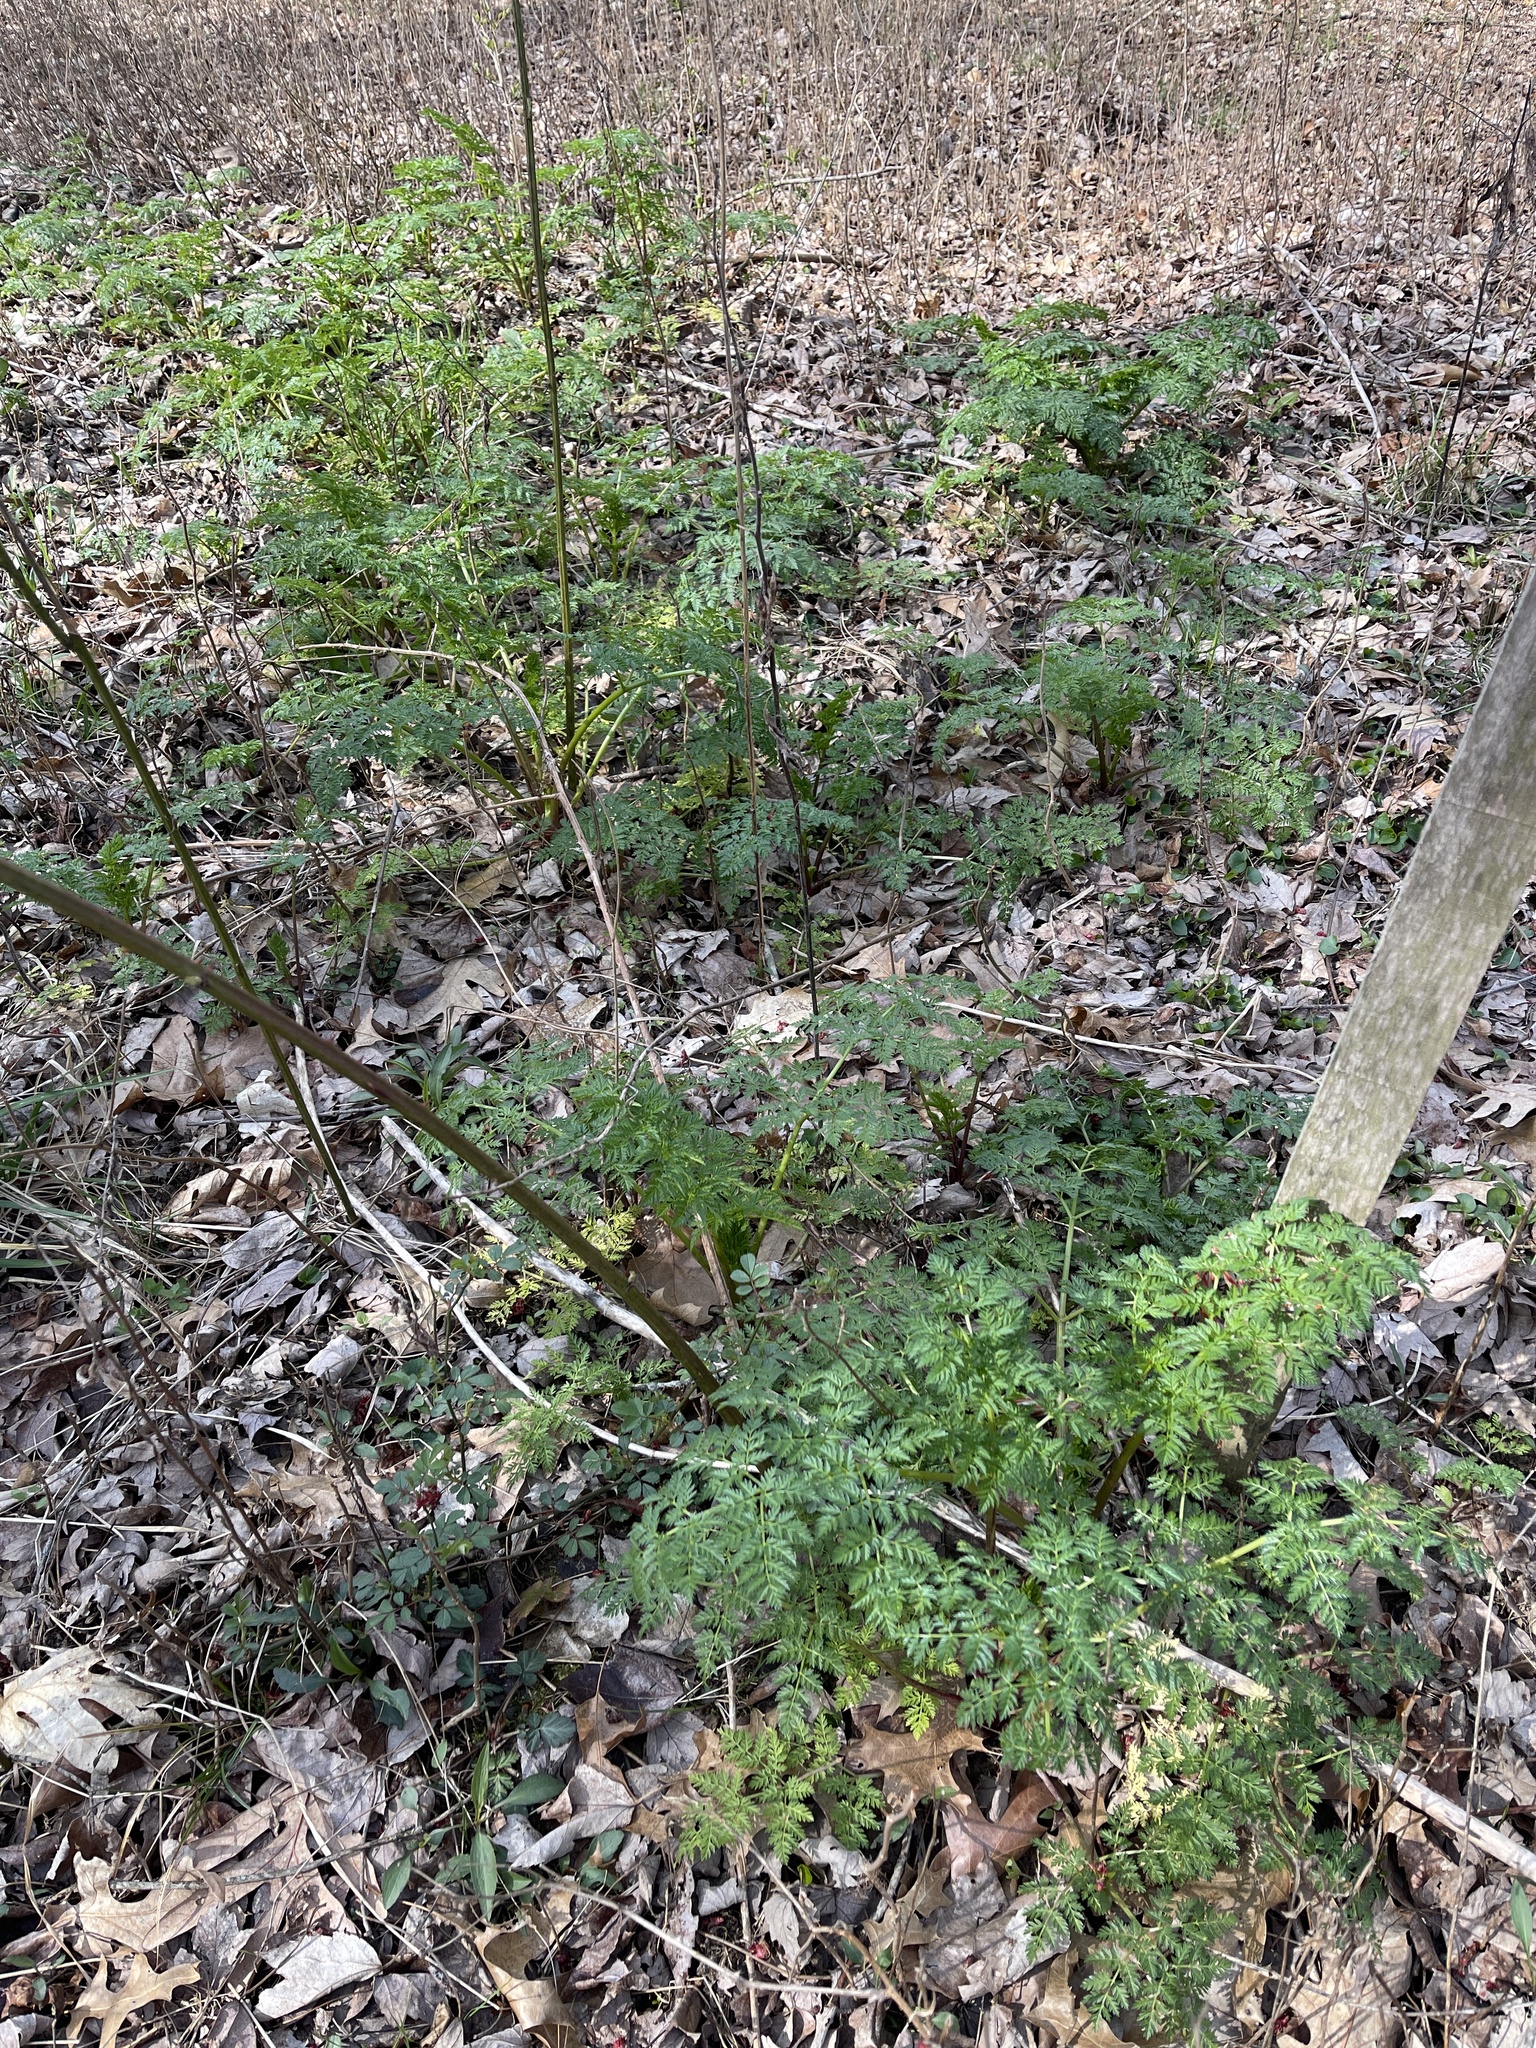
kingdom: Plantae
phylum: Tracheophyta
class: Magnoliopsida
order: Apiales
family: Apiaceae
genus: Conium
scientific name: Conium maculatum
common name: Hemlock
